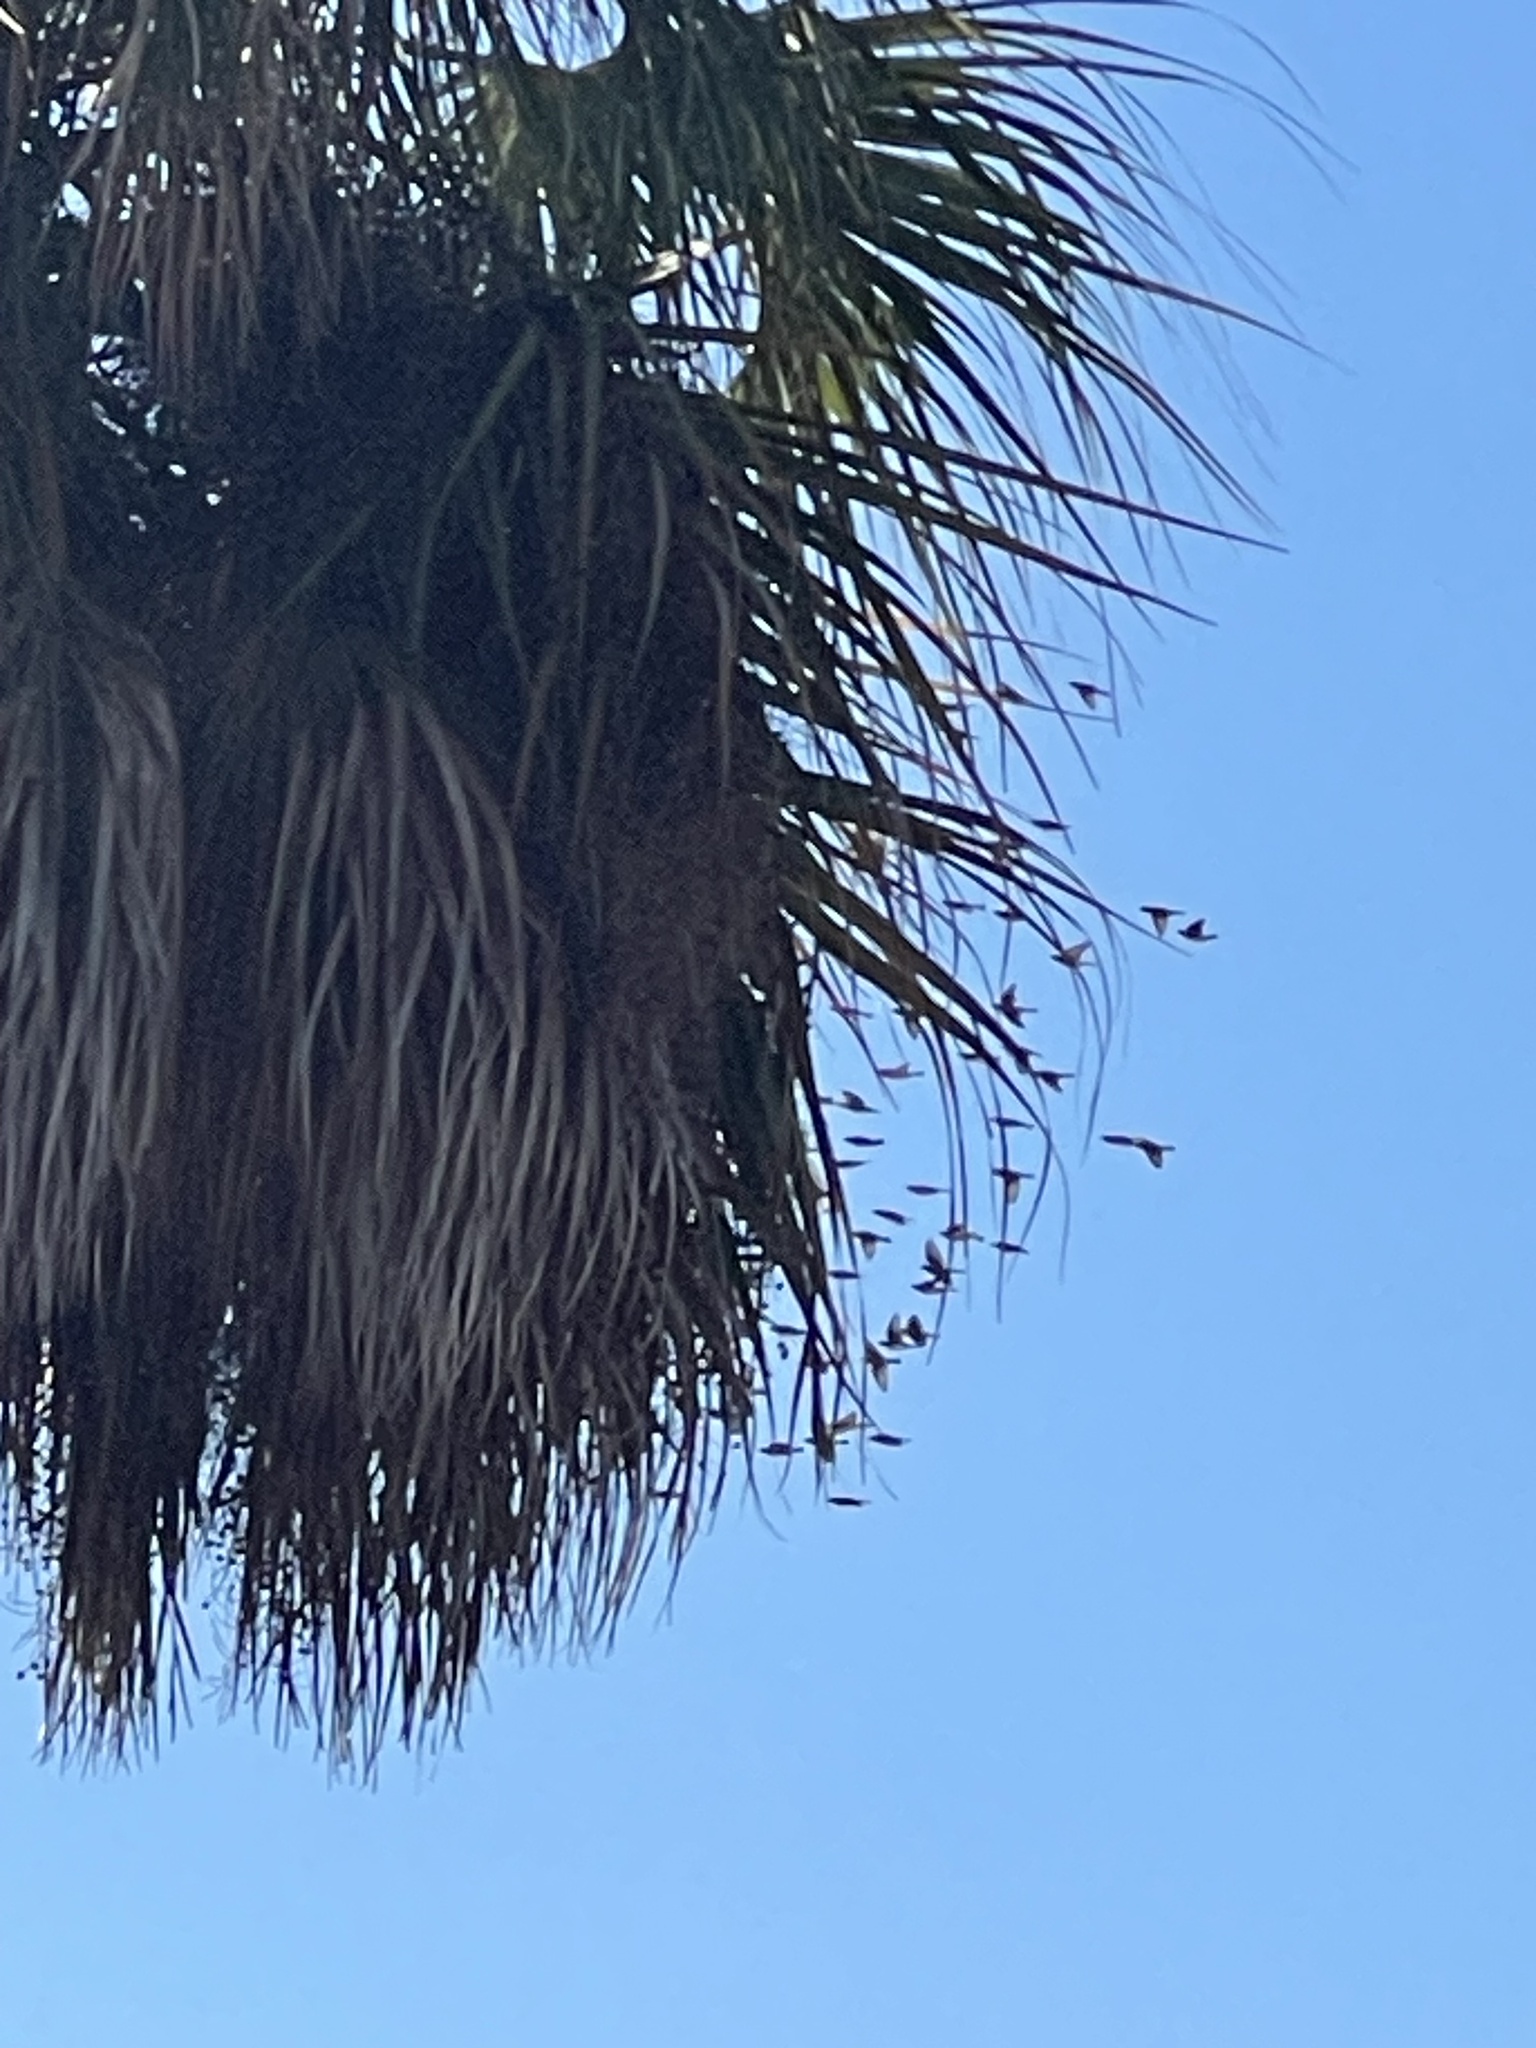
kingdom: Animalia
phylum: Chordata
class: Aves
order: Passeriformes
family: Bombycillidae
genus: Bombycilla
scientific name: Bombycilla cedrorum
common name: Cedar waxwing
